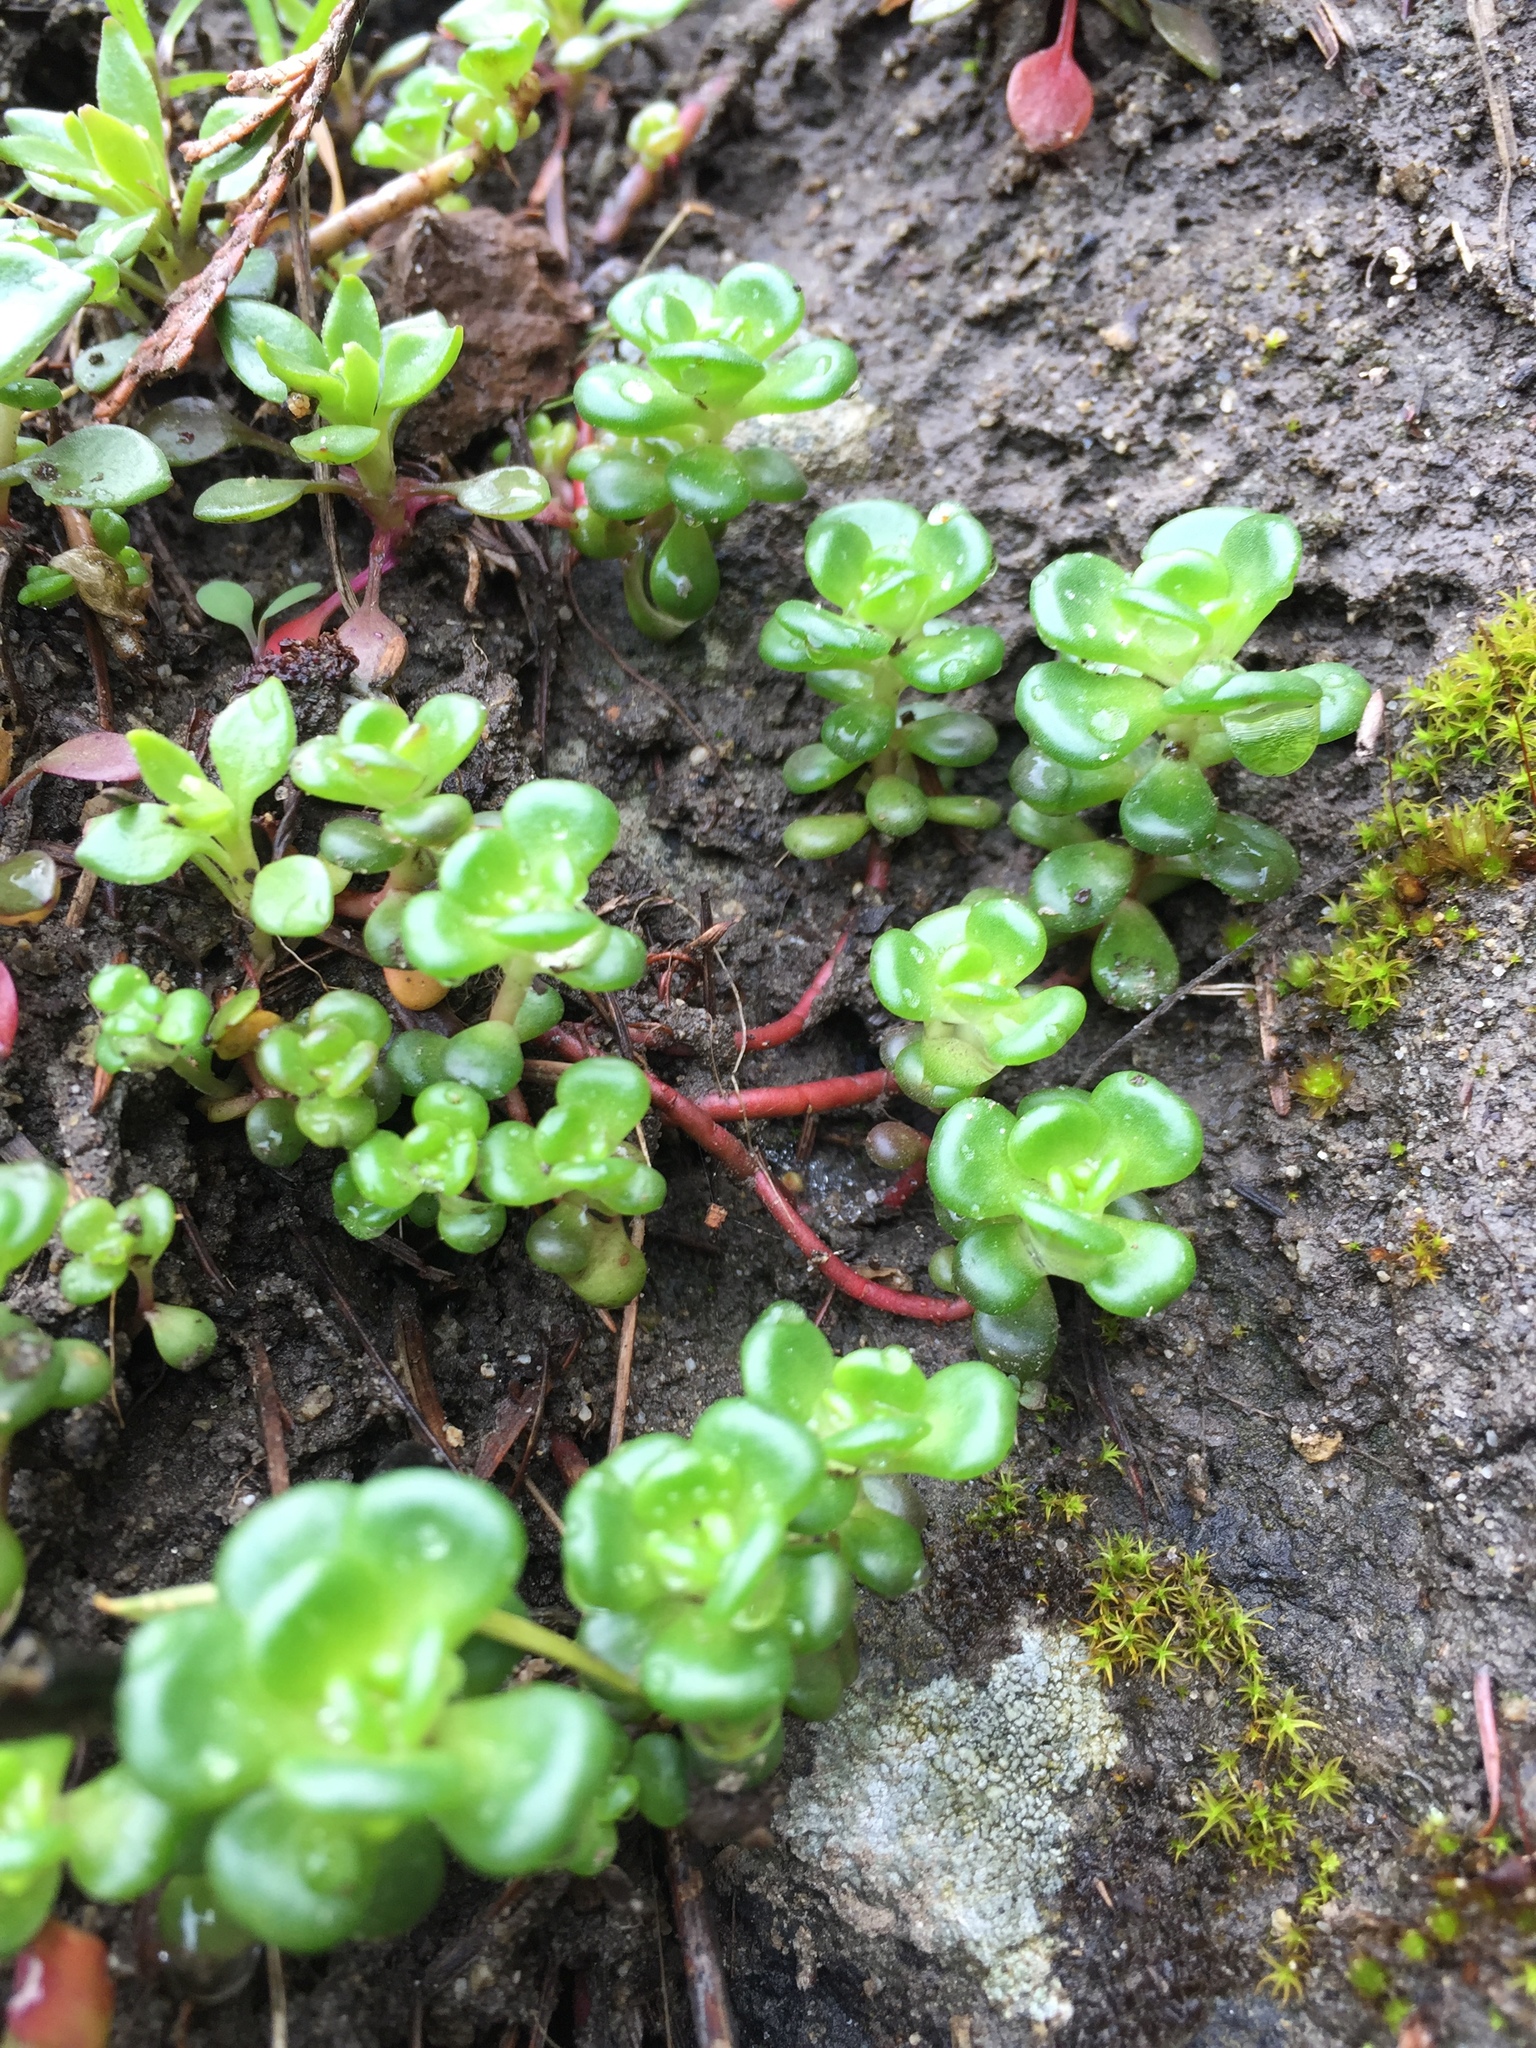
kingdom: Plantae
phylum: Tracheophyta
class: Magnoliopsida
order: Saxifragales
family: Crassulaceae
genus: Sedum
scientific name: Sedum oreganum
